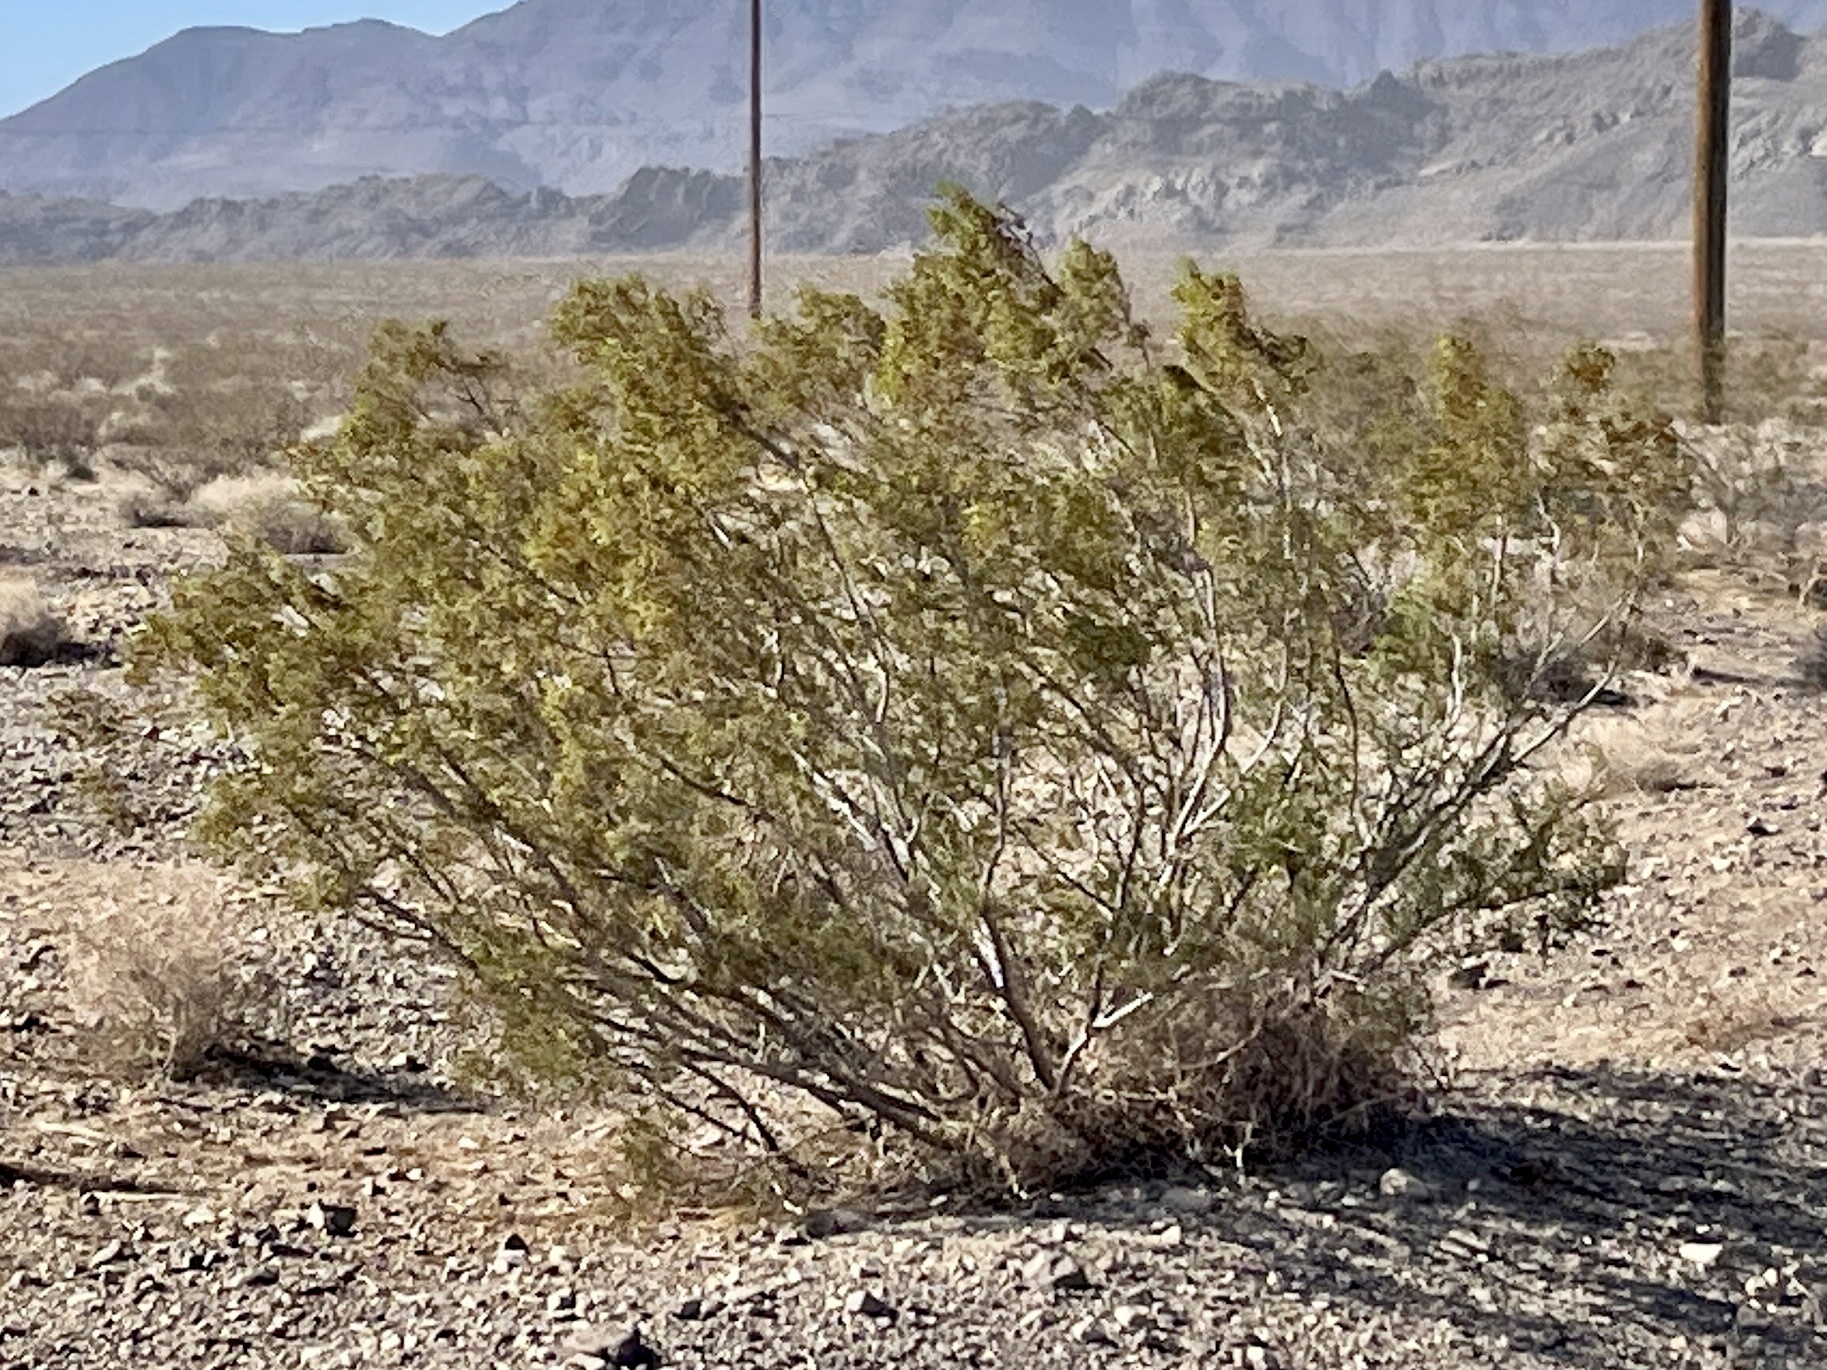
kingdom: Plantae
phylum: Tracheophyta
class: Magnoliopsida
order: Zygophyllales
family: Zygophyllaceae
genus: Larrea
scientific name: Larrea tridentata
